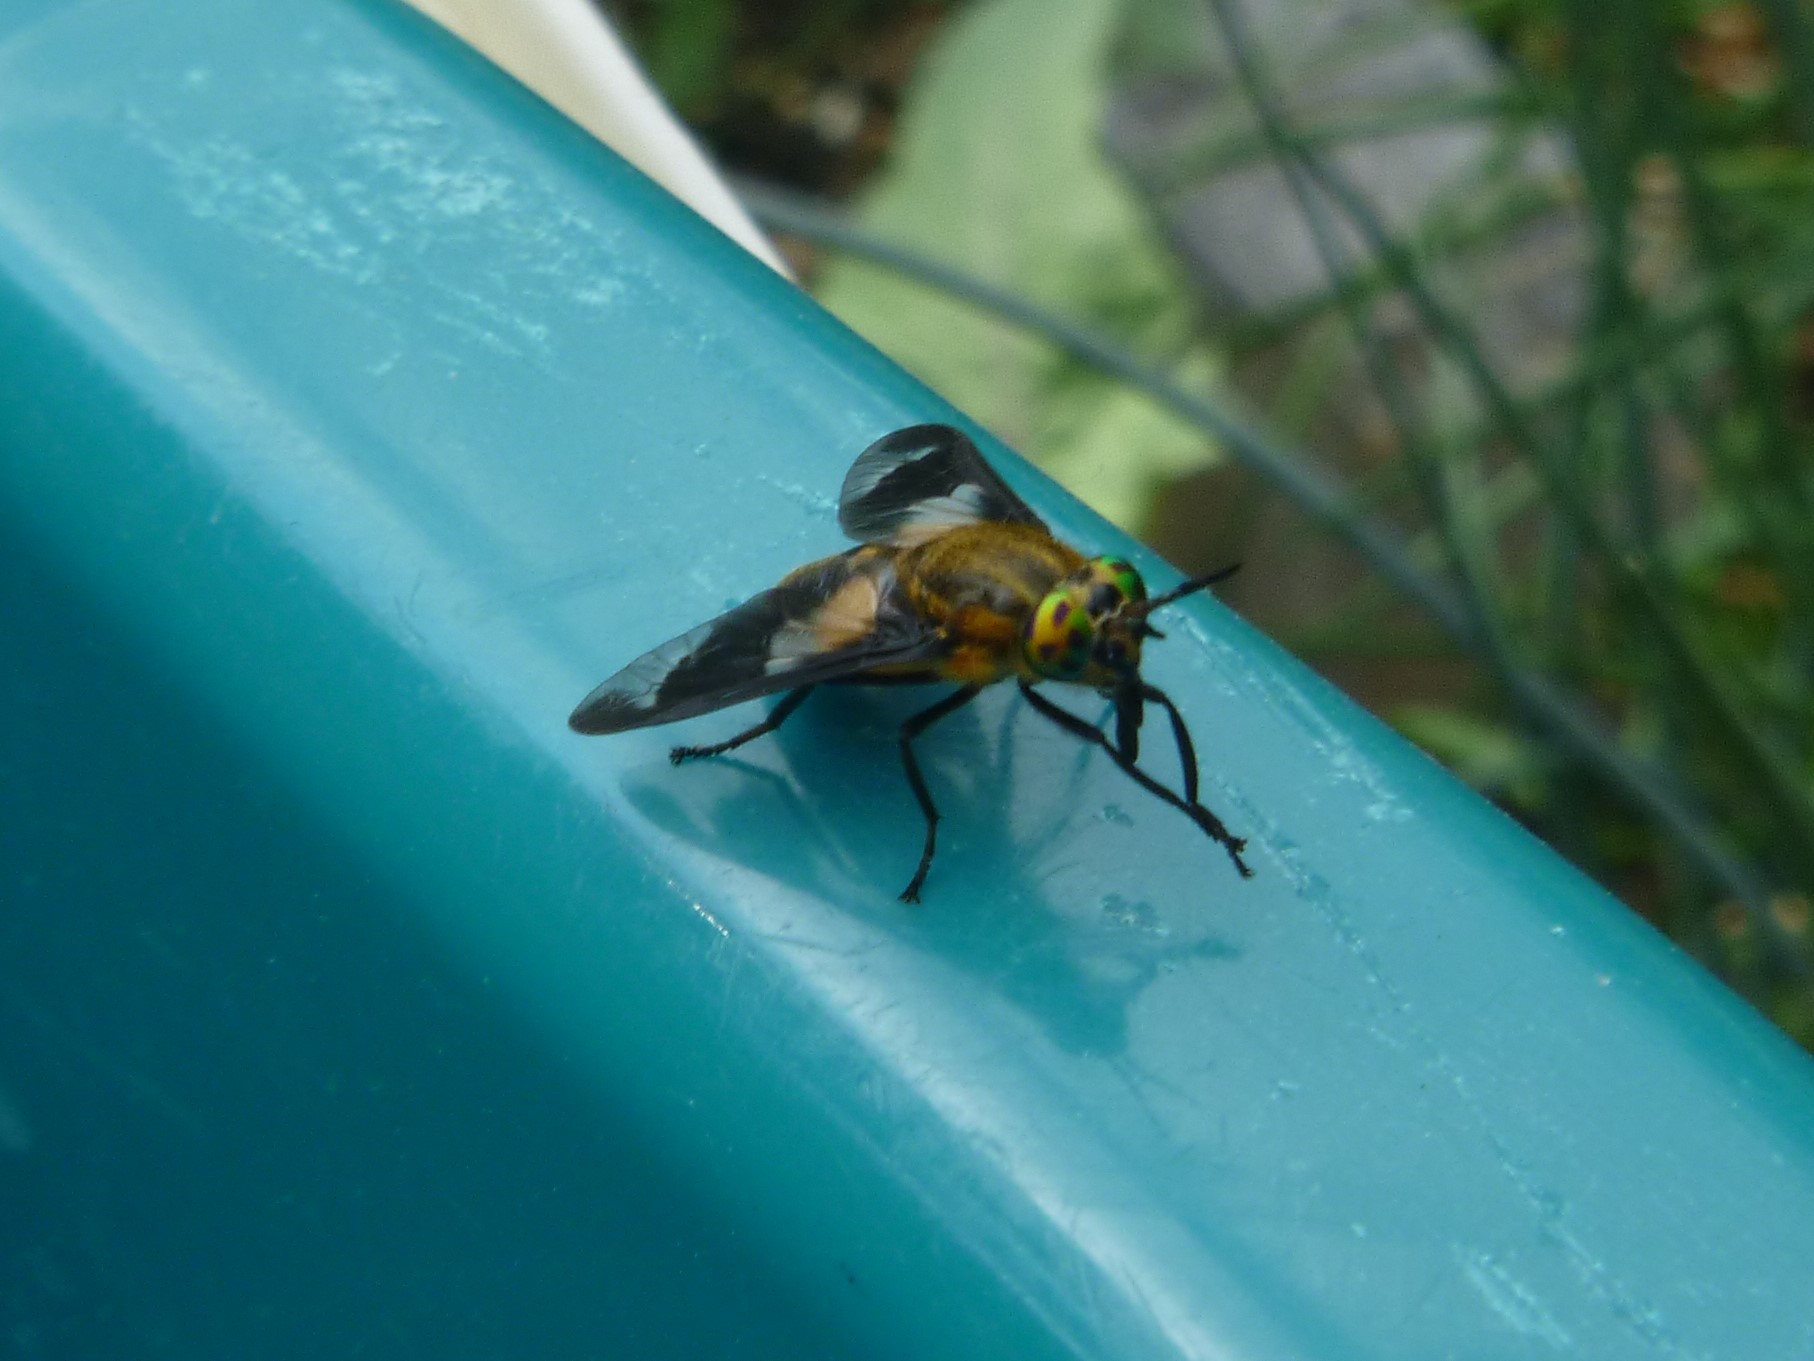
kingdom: Animalia
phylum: Arthropoda
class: Insecta
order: Diptera
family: Tabanidae
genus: Chrysops
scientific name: Chrysops caecutiens
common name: Splayed deerfly
